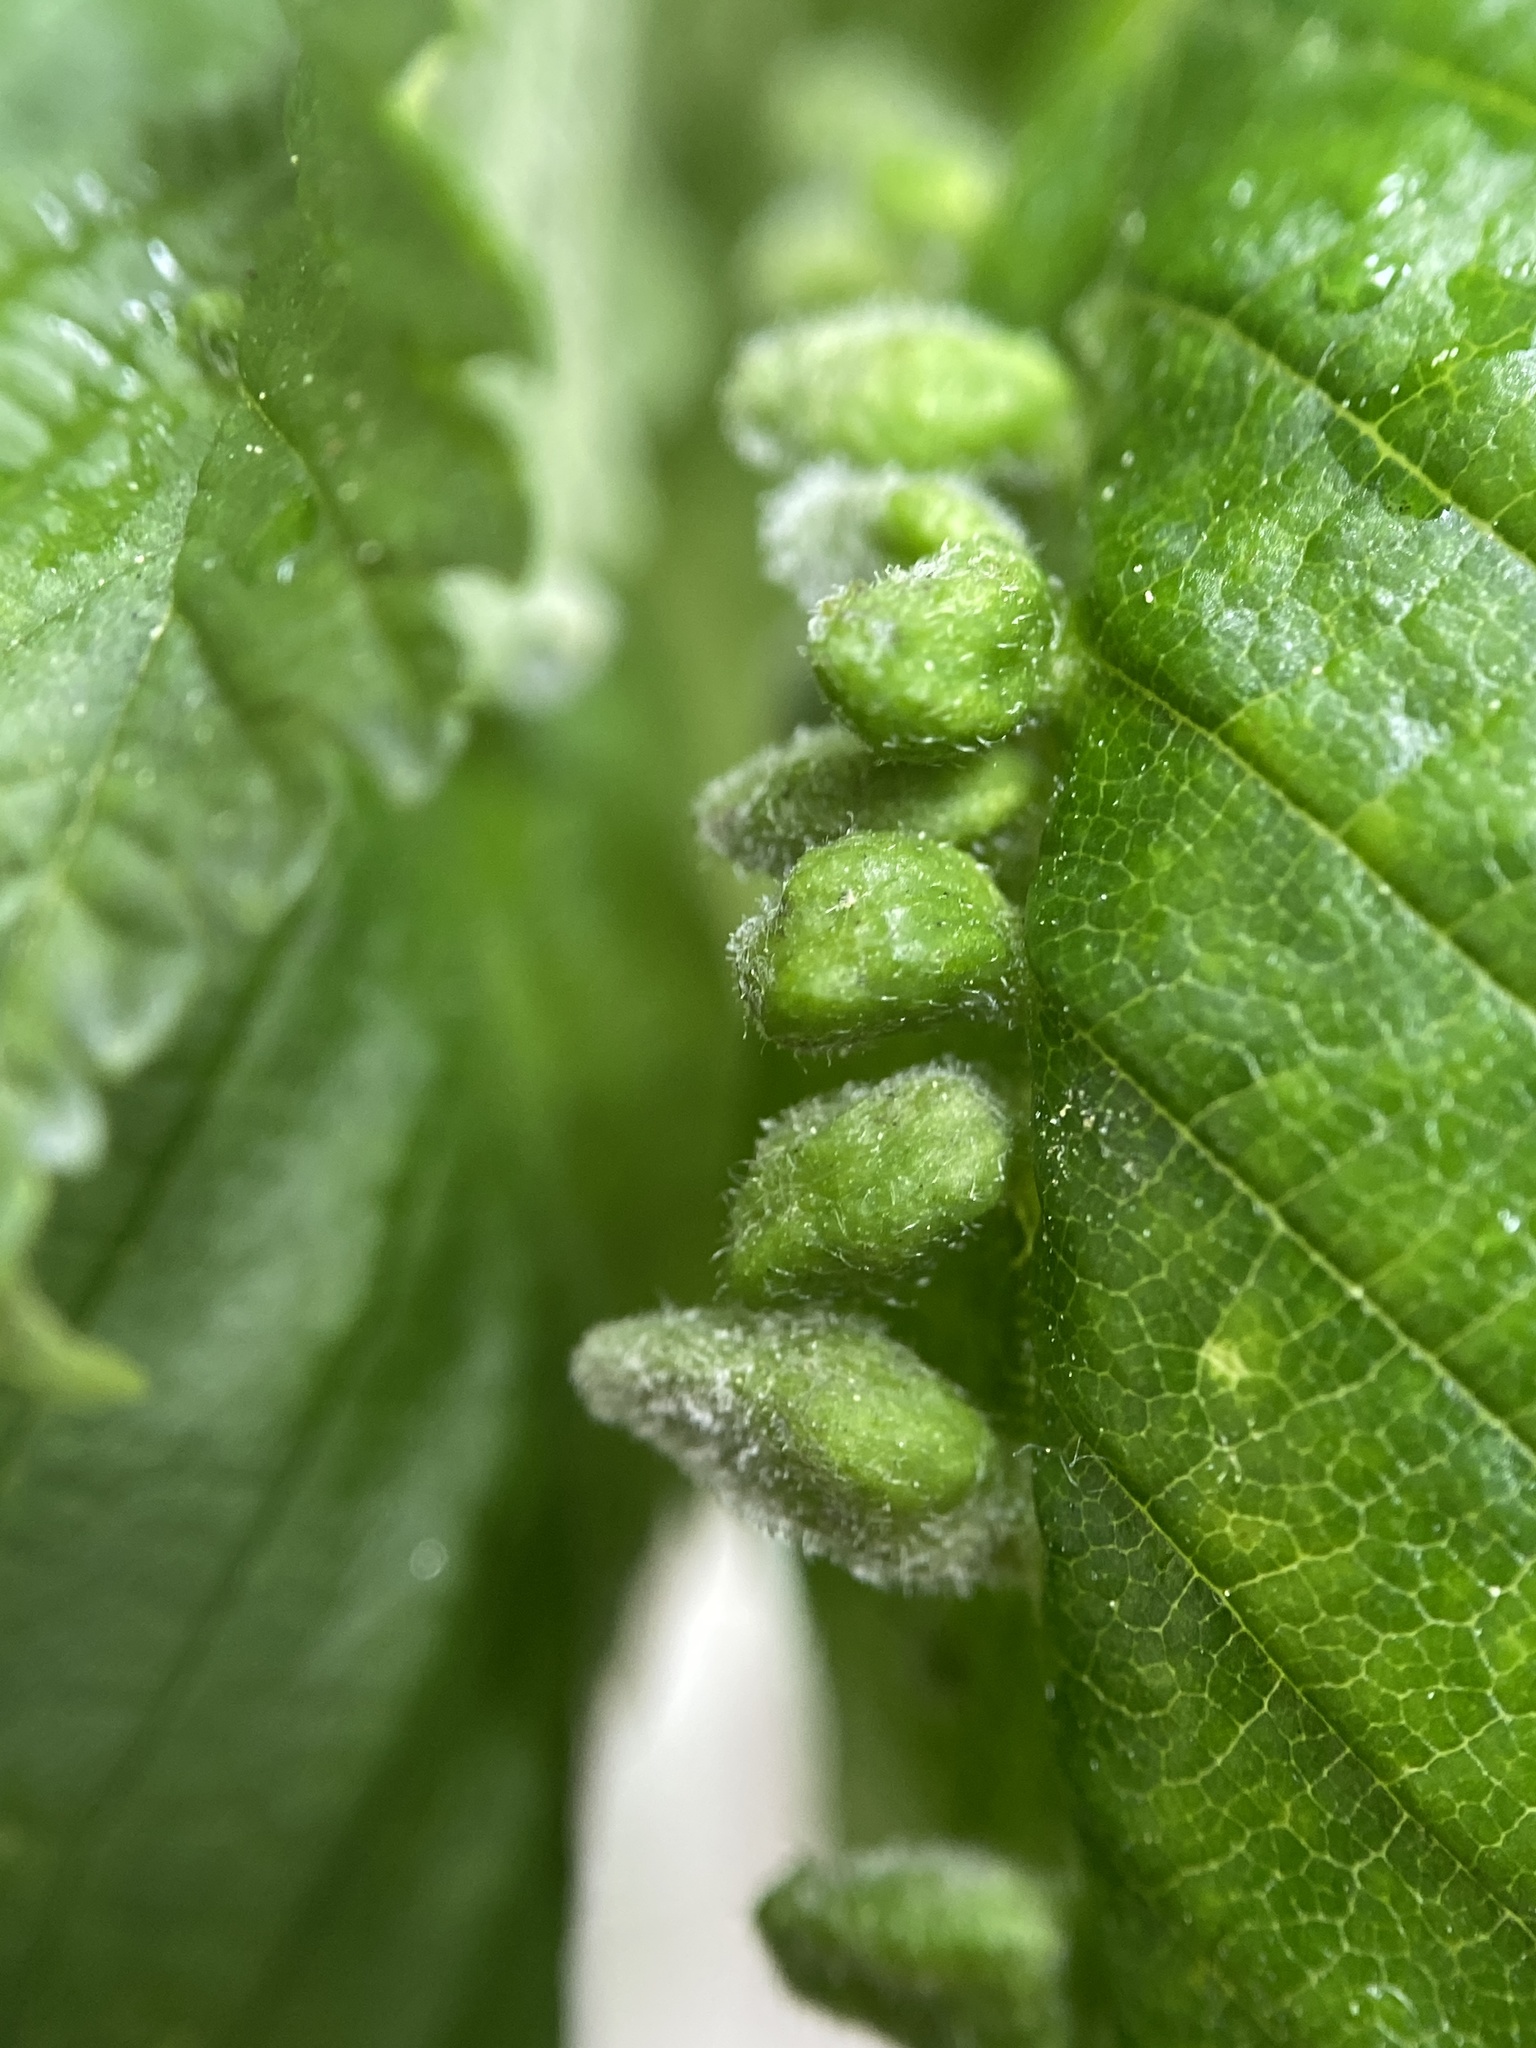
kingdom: Animalia
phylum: Arthropoda
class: Arachnida
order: Trombidiformes
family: Eriophyidae
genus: Aceria
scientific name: Aceria
